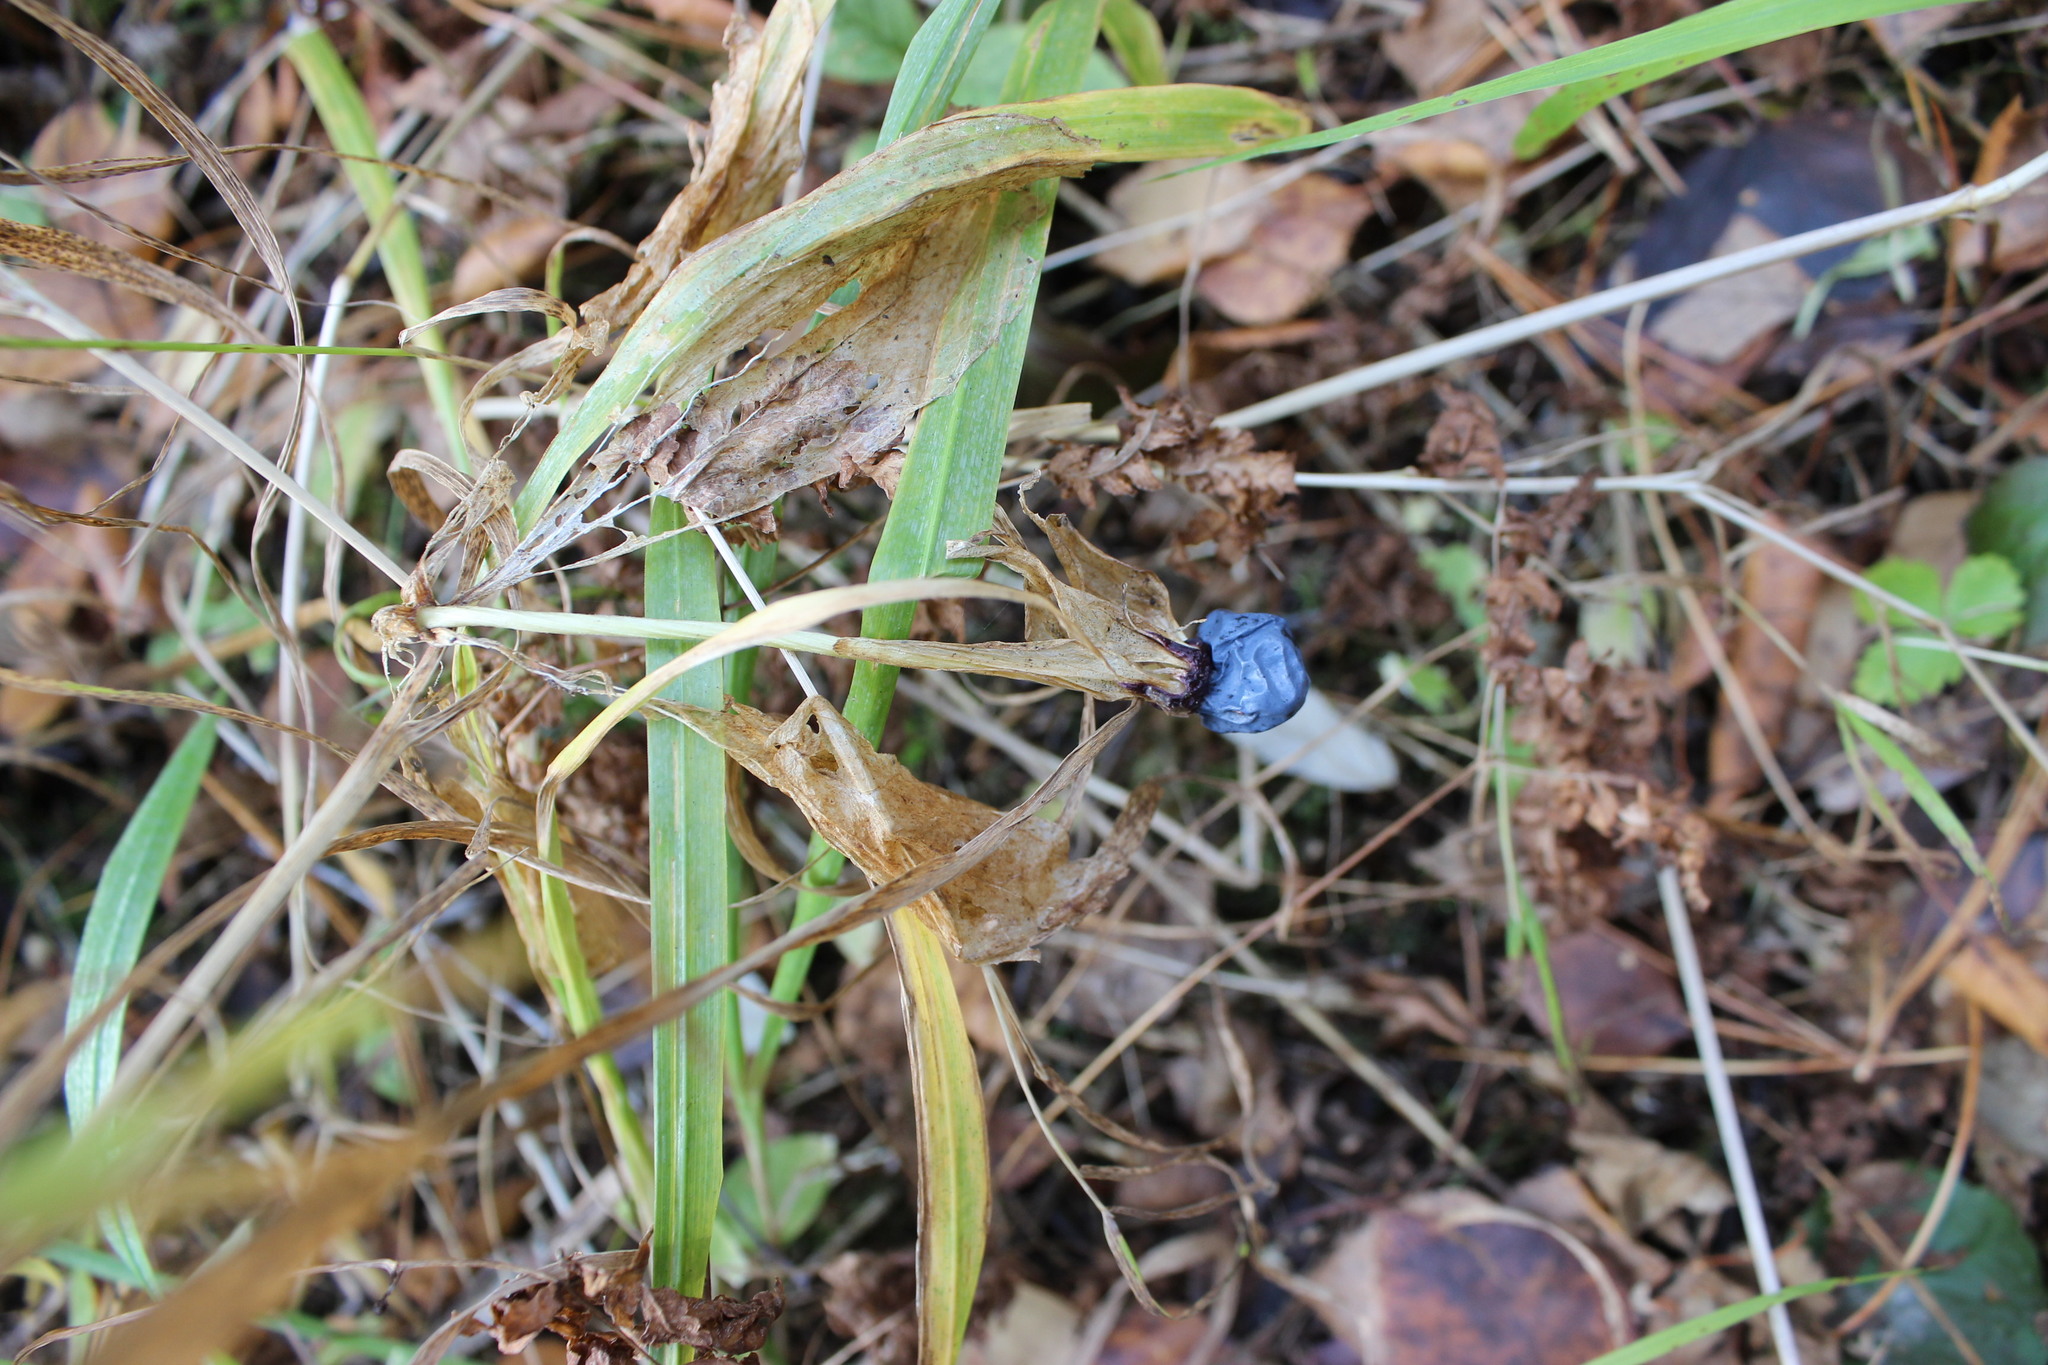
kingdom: Plantae
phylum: Tracheophyta
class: Liliopsida
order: Liliales
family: Melanthiaceae
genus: Paris
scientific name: Paris quadrifolia
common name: Herb-paris
